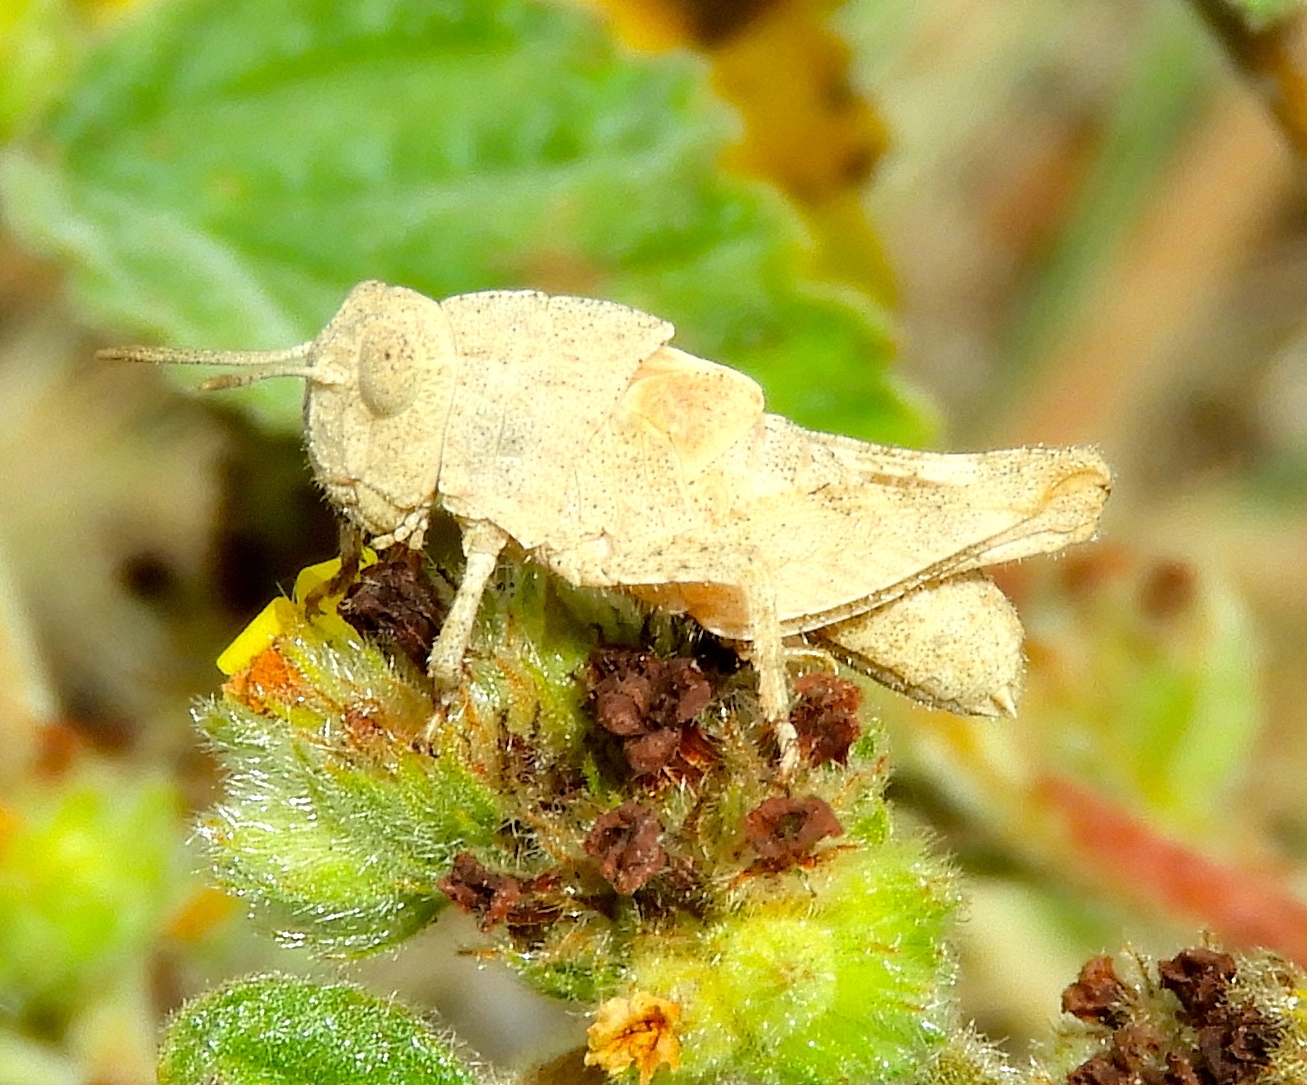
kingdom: Animalia
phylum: Arthropoda
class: Insecta
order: Orthoptera
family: Acrididae
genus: Lactista
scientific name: Lactista elota
